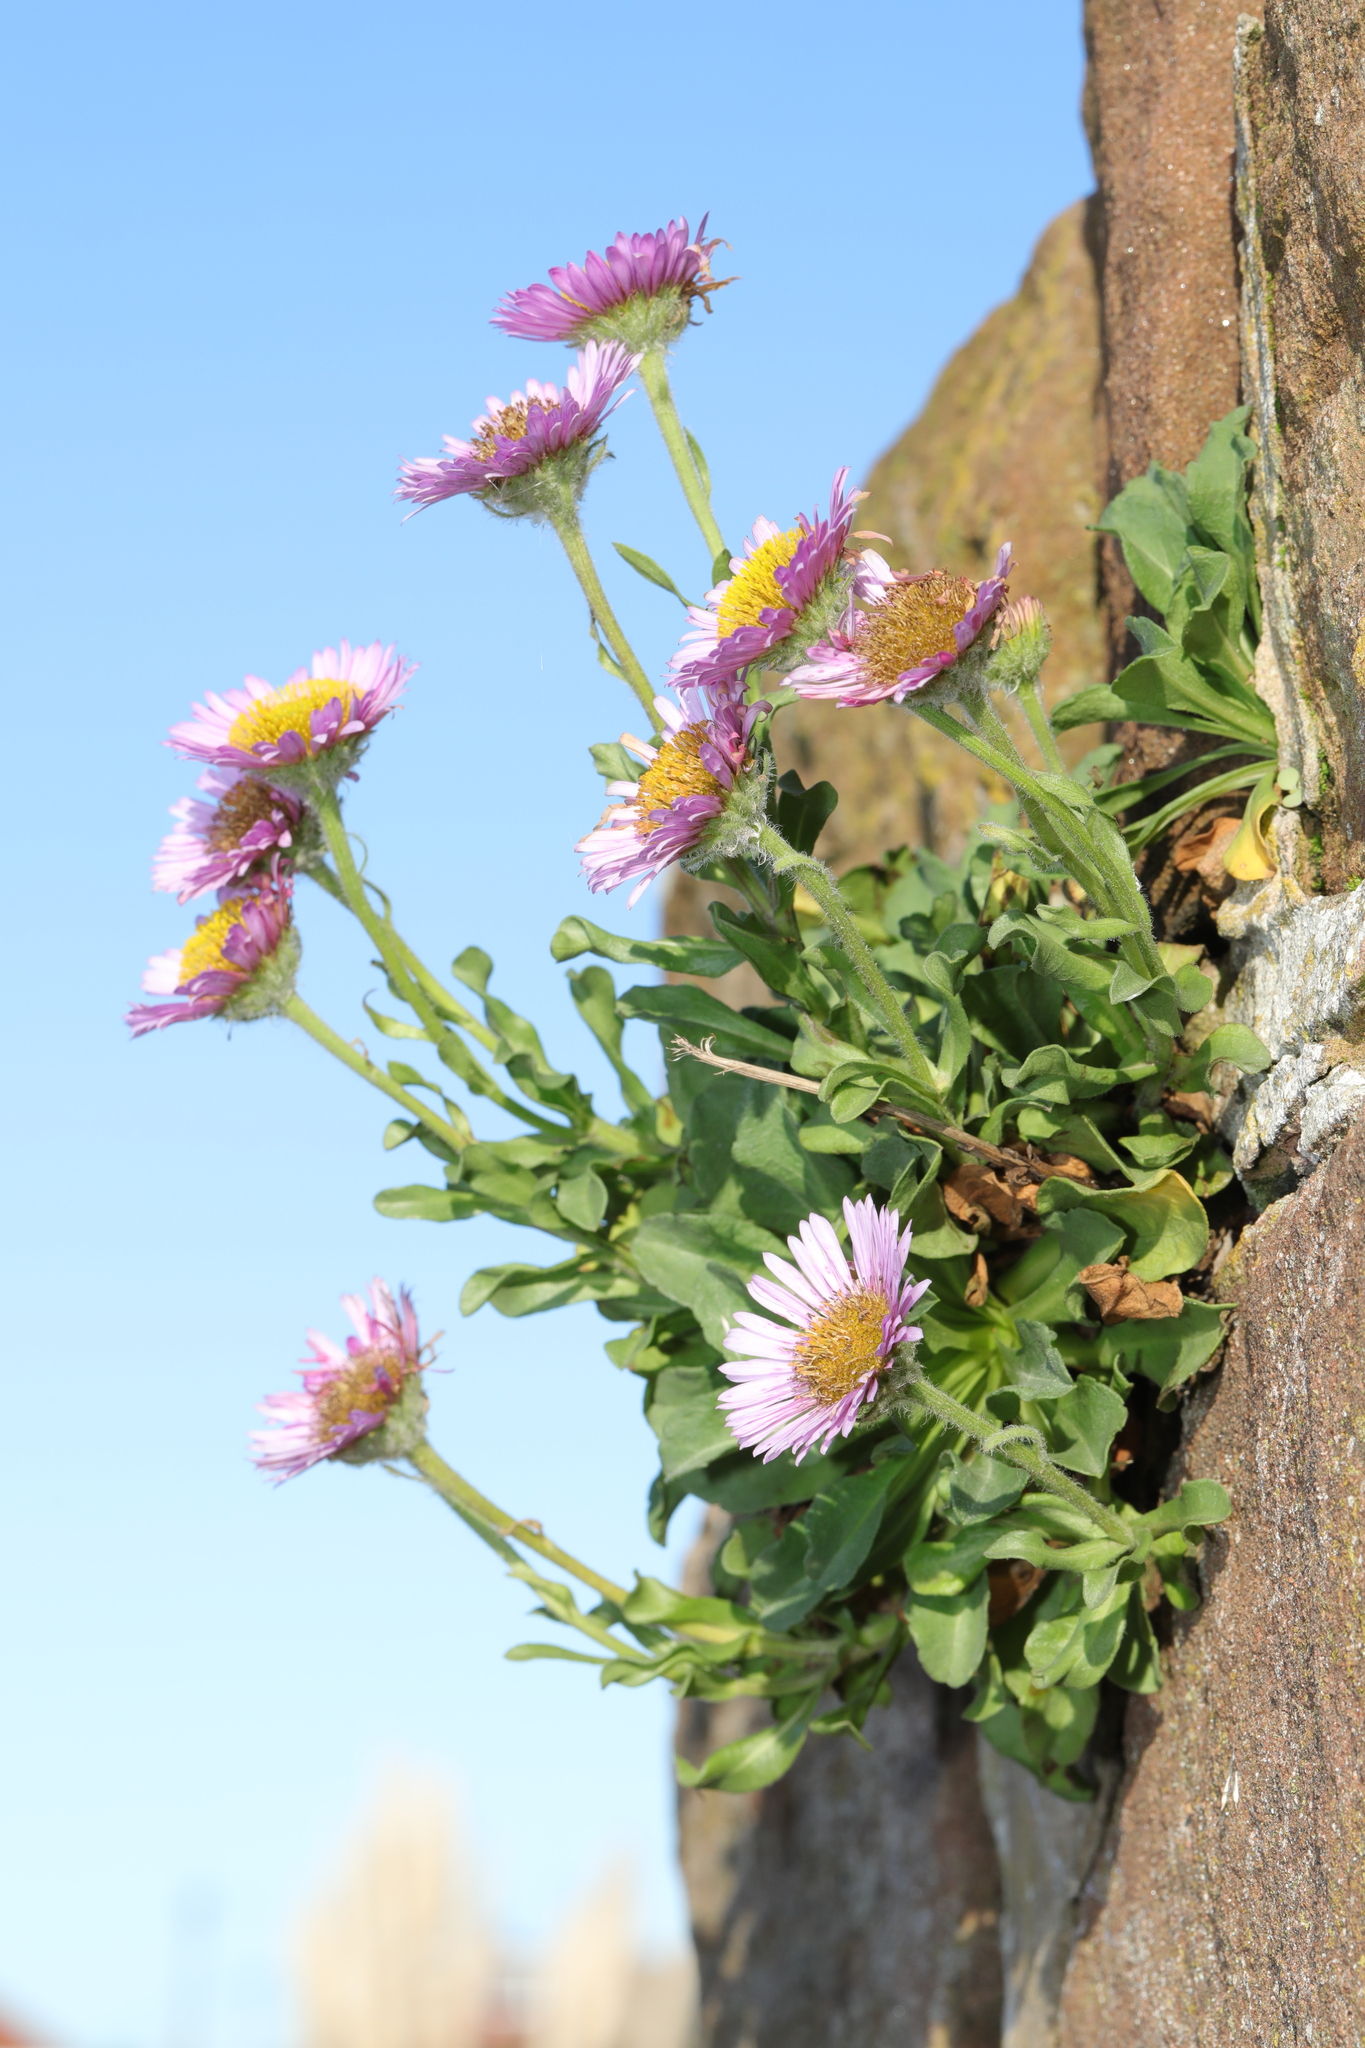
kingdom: Plantae
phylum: Tracheophyta
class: Magnoliopsida
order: Asterales
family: Asteraceae
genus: Erigeron
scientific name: Erigeron glaucus
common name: Seaside daisy
